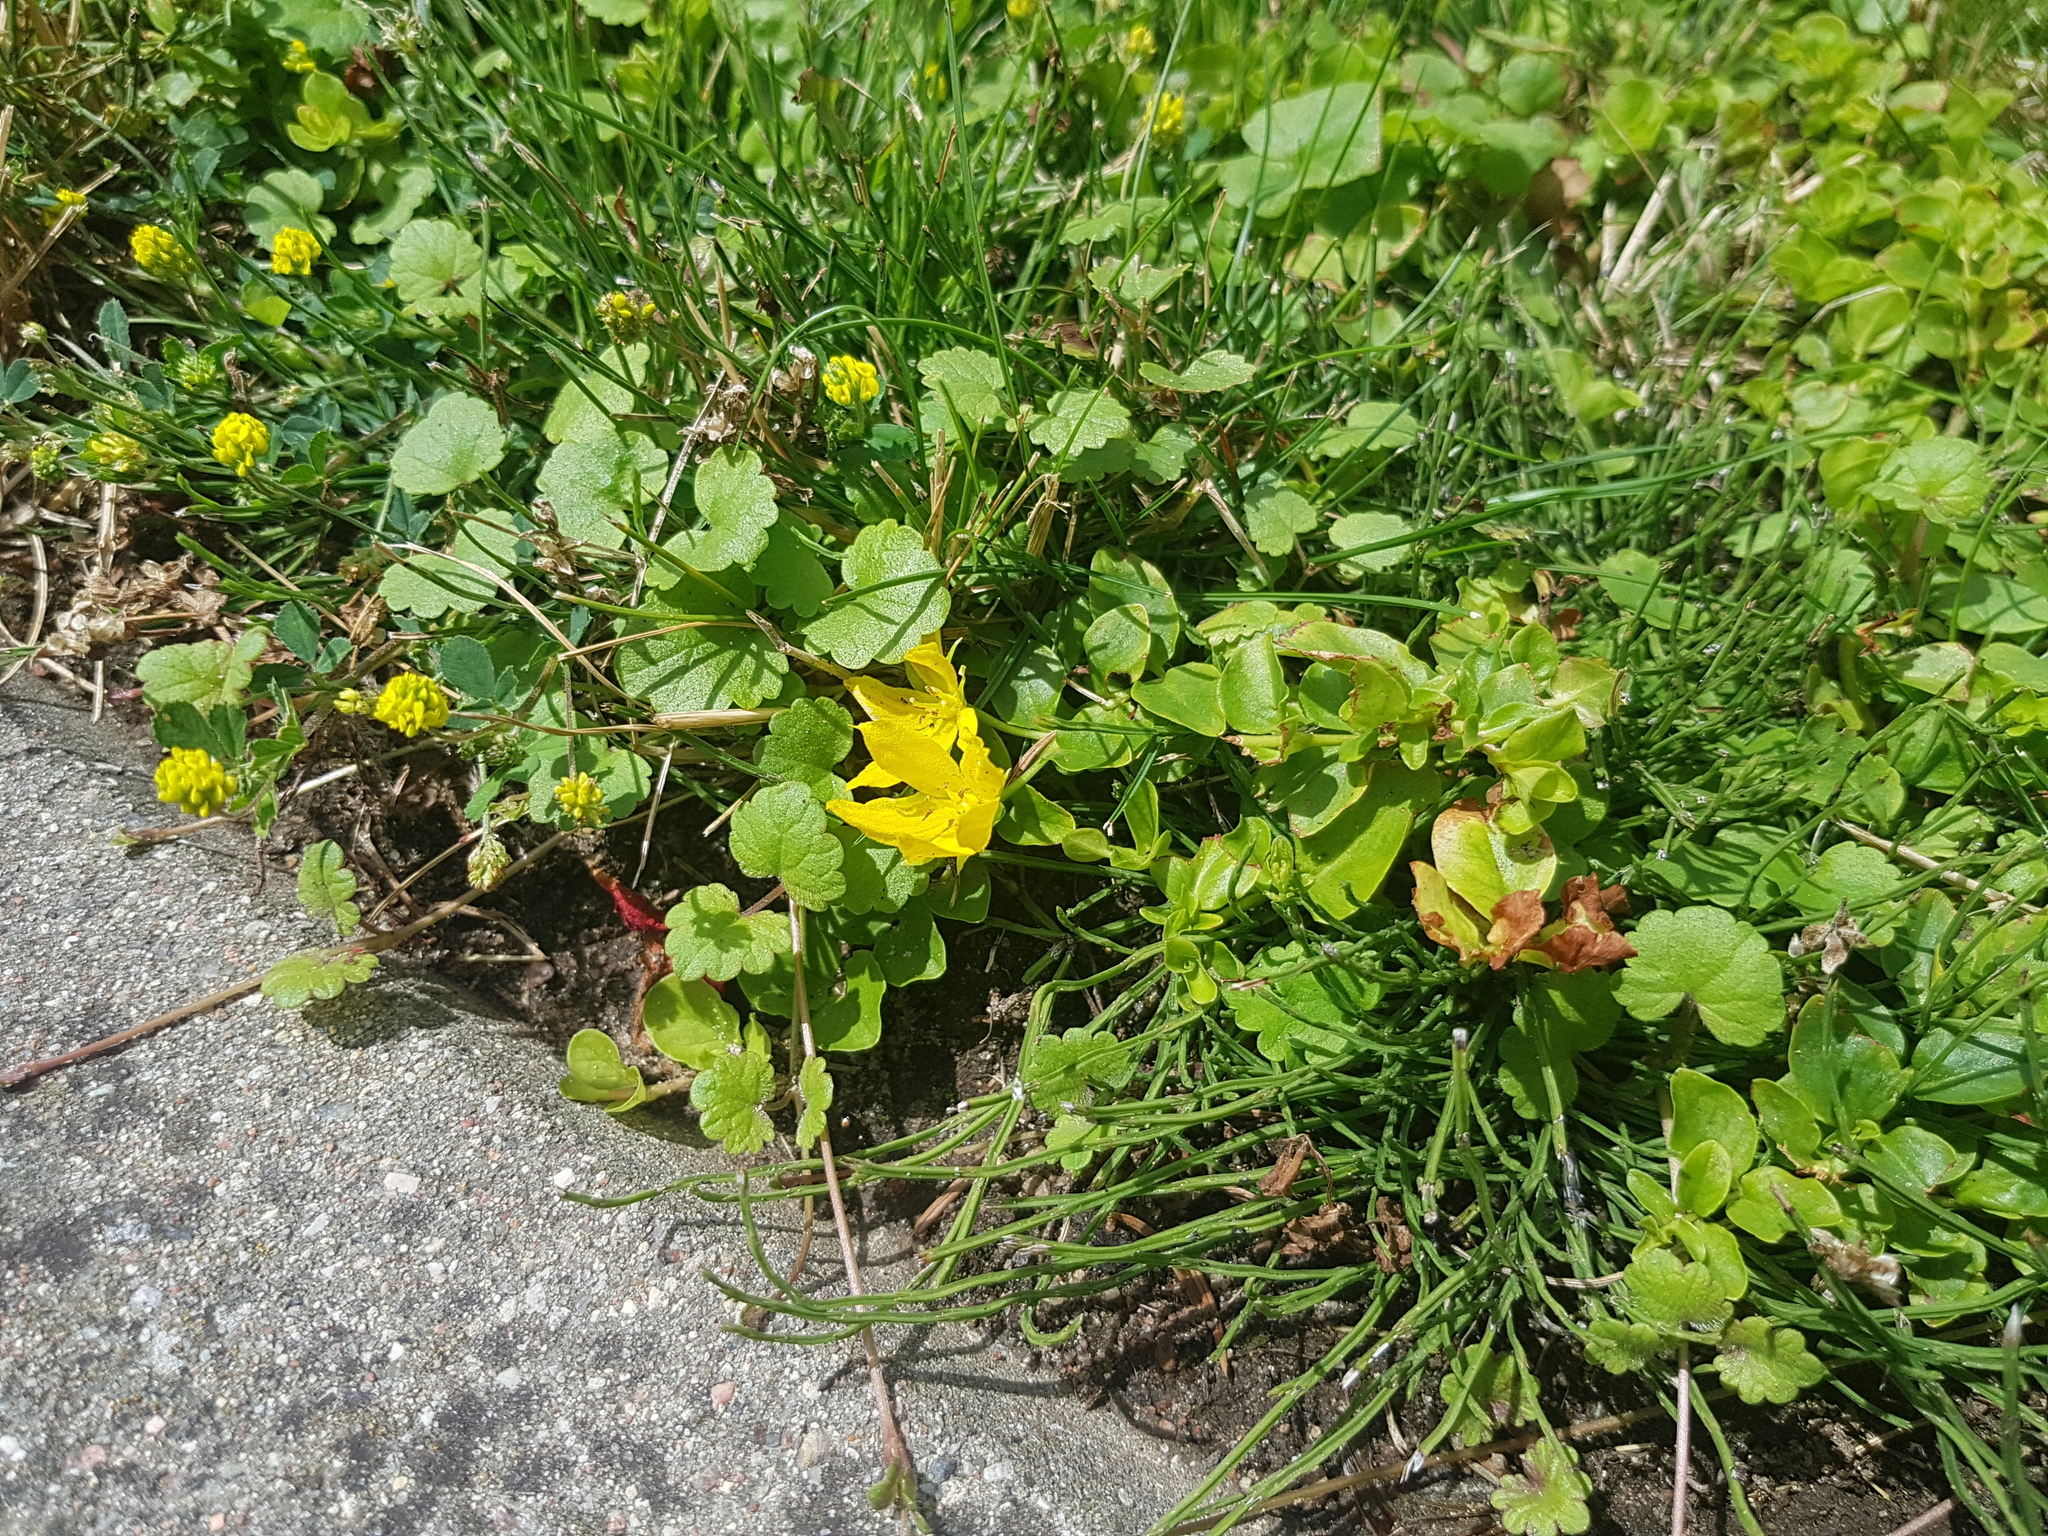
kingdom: Plantae
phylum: Tracheophyta
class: Magnoliopsida
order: Ericales
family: Primulaceae
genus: Lysimachia
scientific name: Lysimachia nummularia
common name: Moneywort
